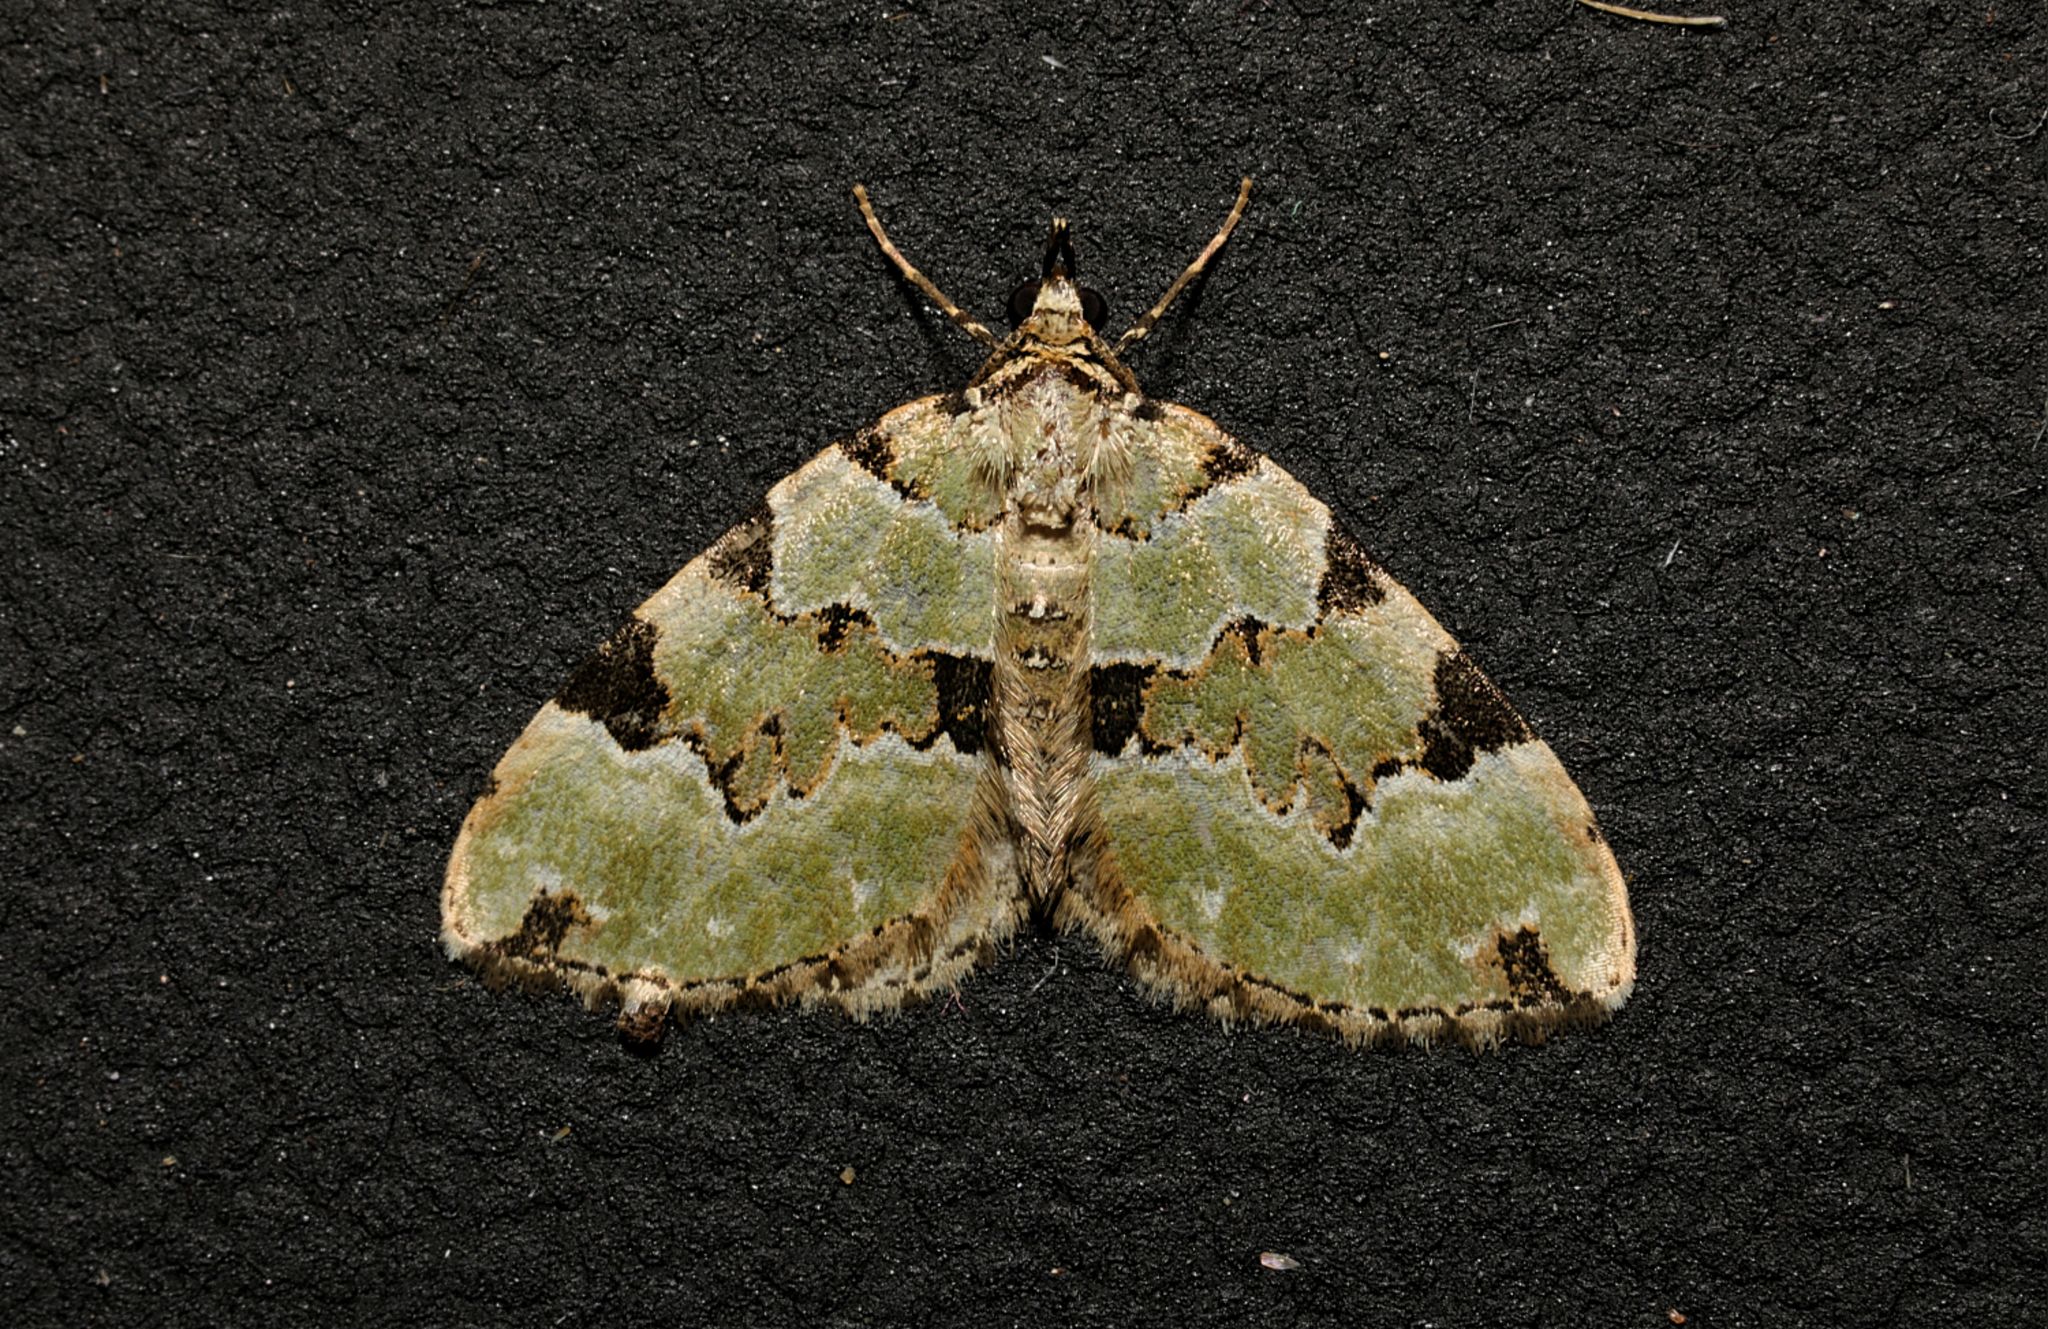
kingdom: Animalia
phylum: Arthropoda
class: Insecta
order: Lepidoptera
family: Geometridae
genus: Colostygia
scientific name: Colostygia pectinataria
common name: Green carpet
